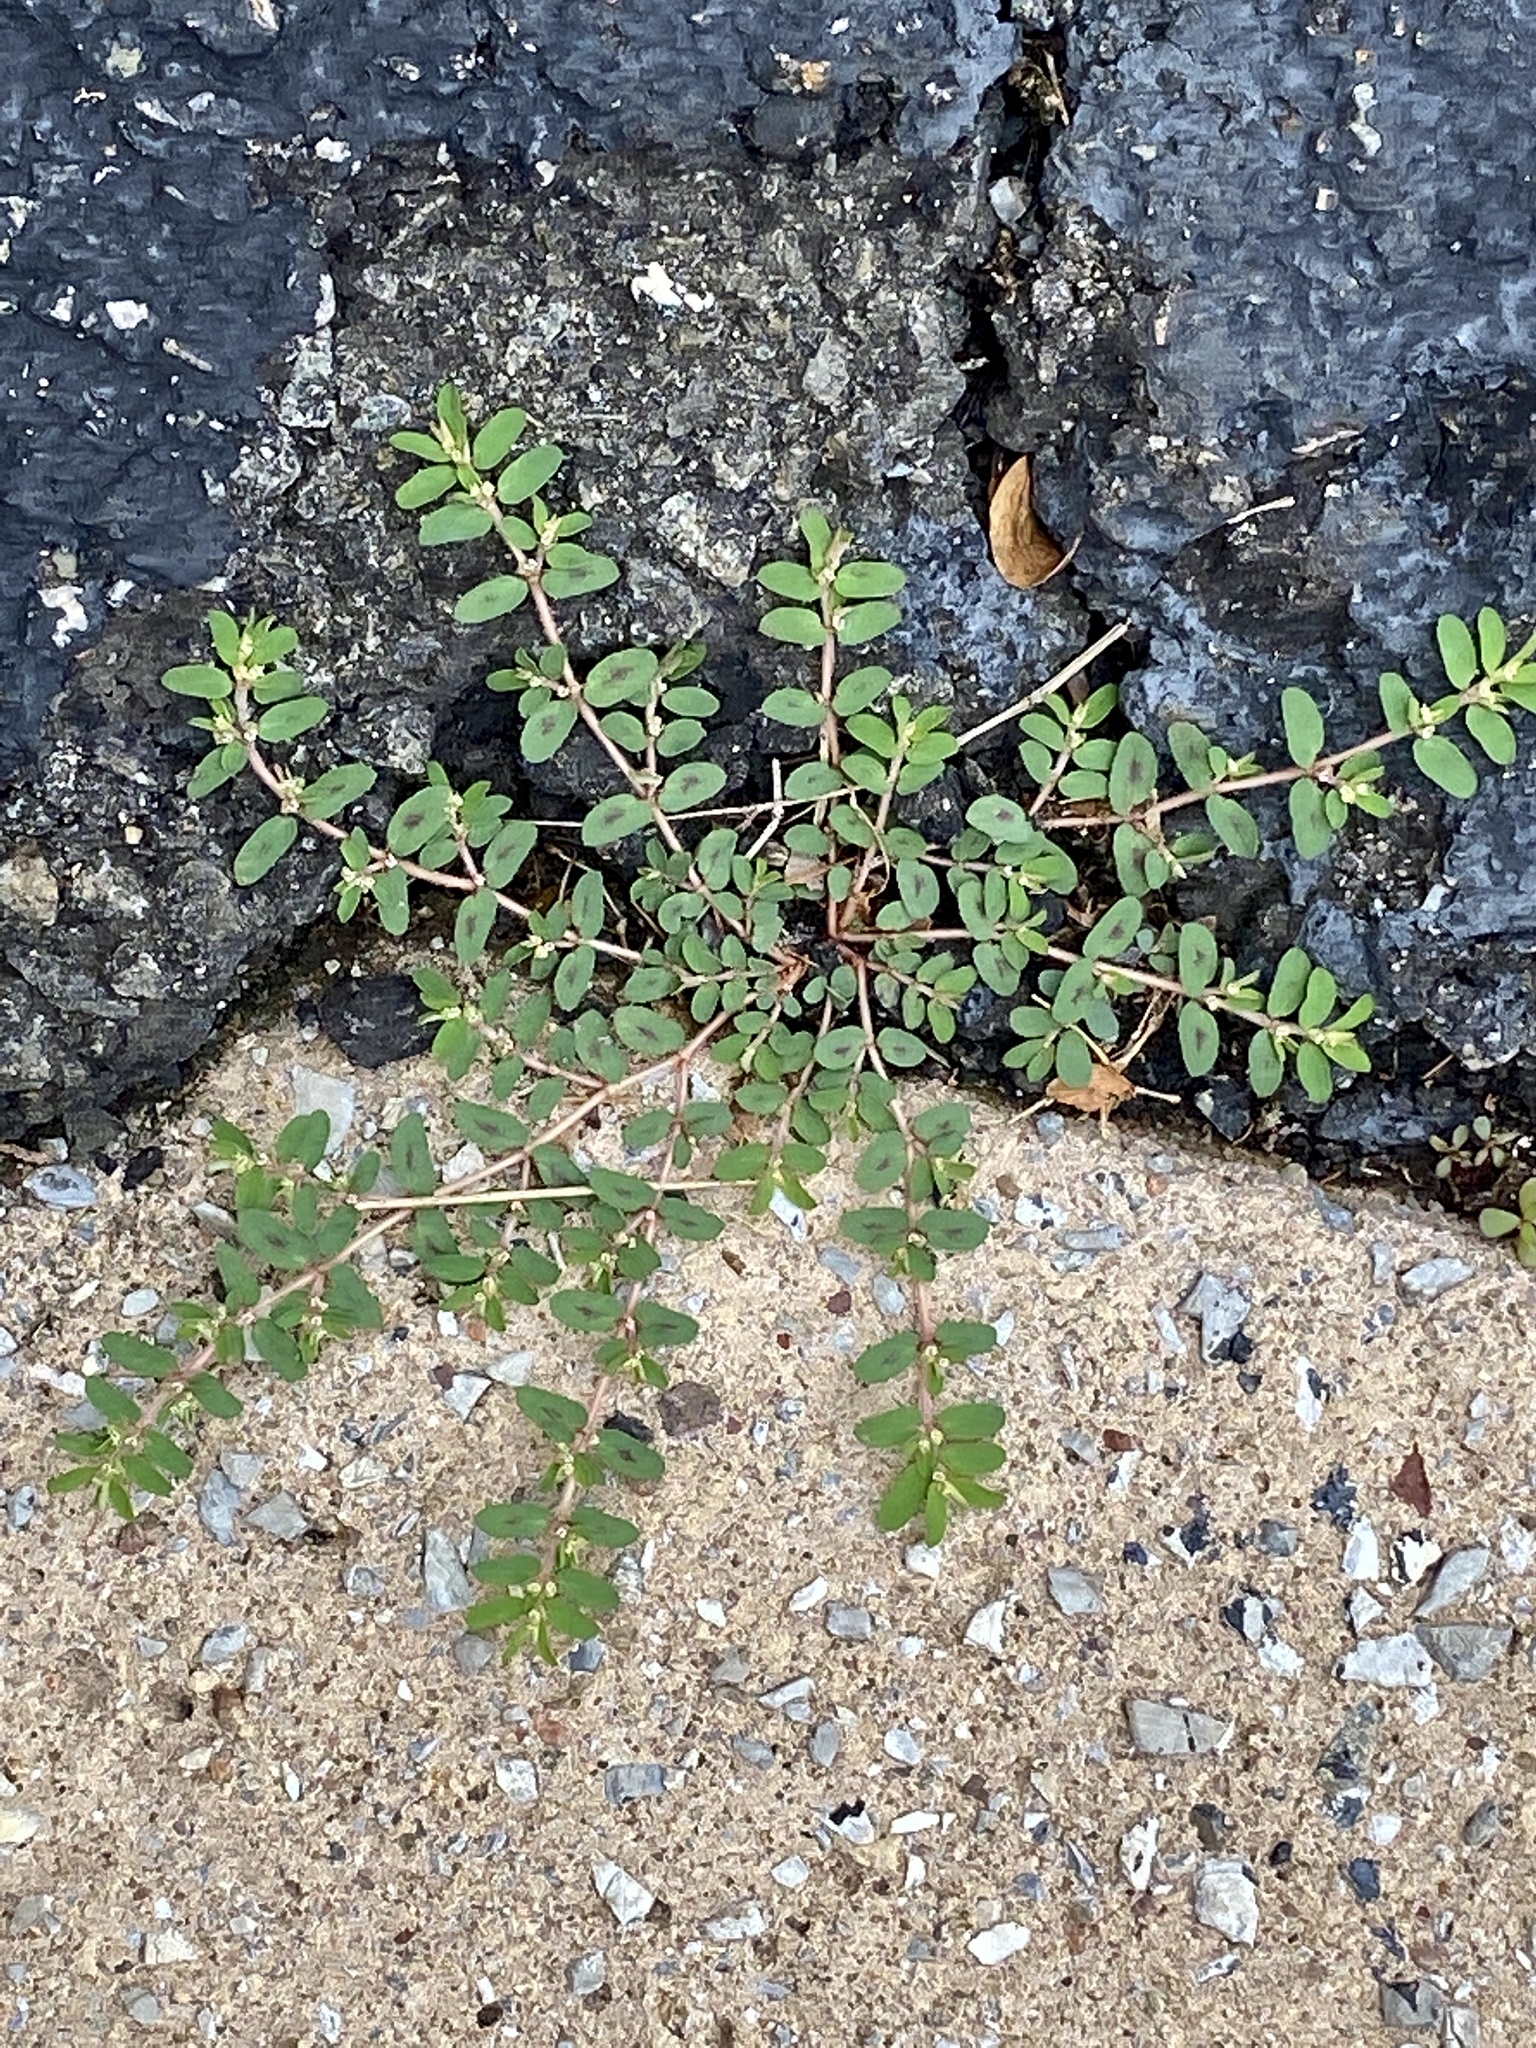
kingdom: Plantae
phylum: Tracheophyta
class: Magnoliopsida
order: Malpighiales
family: Euphorbiaceae
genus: Euphorbia
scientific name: Euphorbia maculata
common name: Spotted spurge
